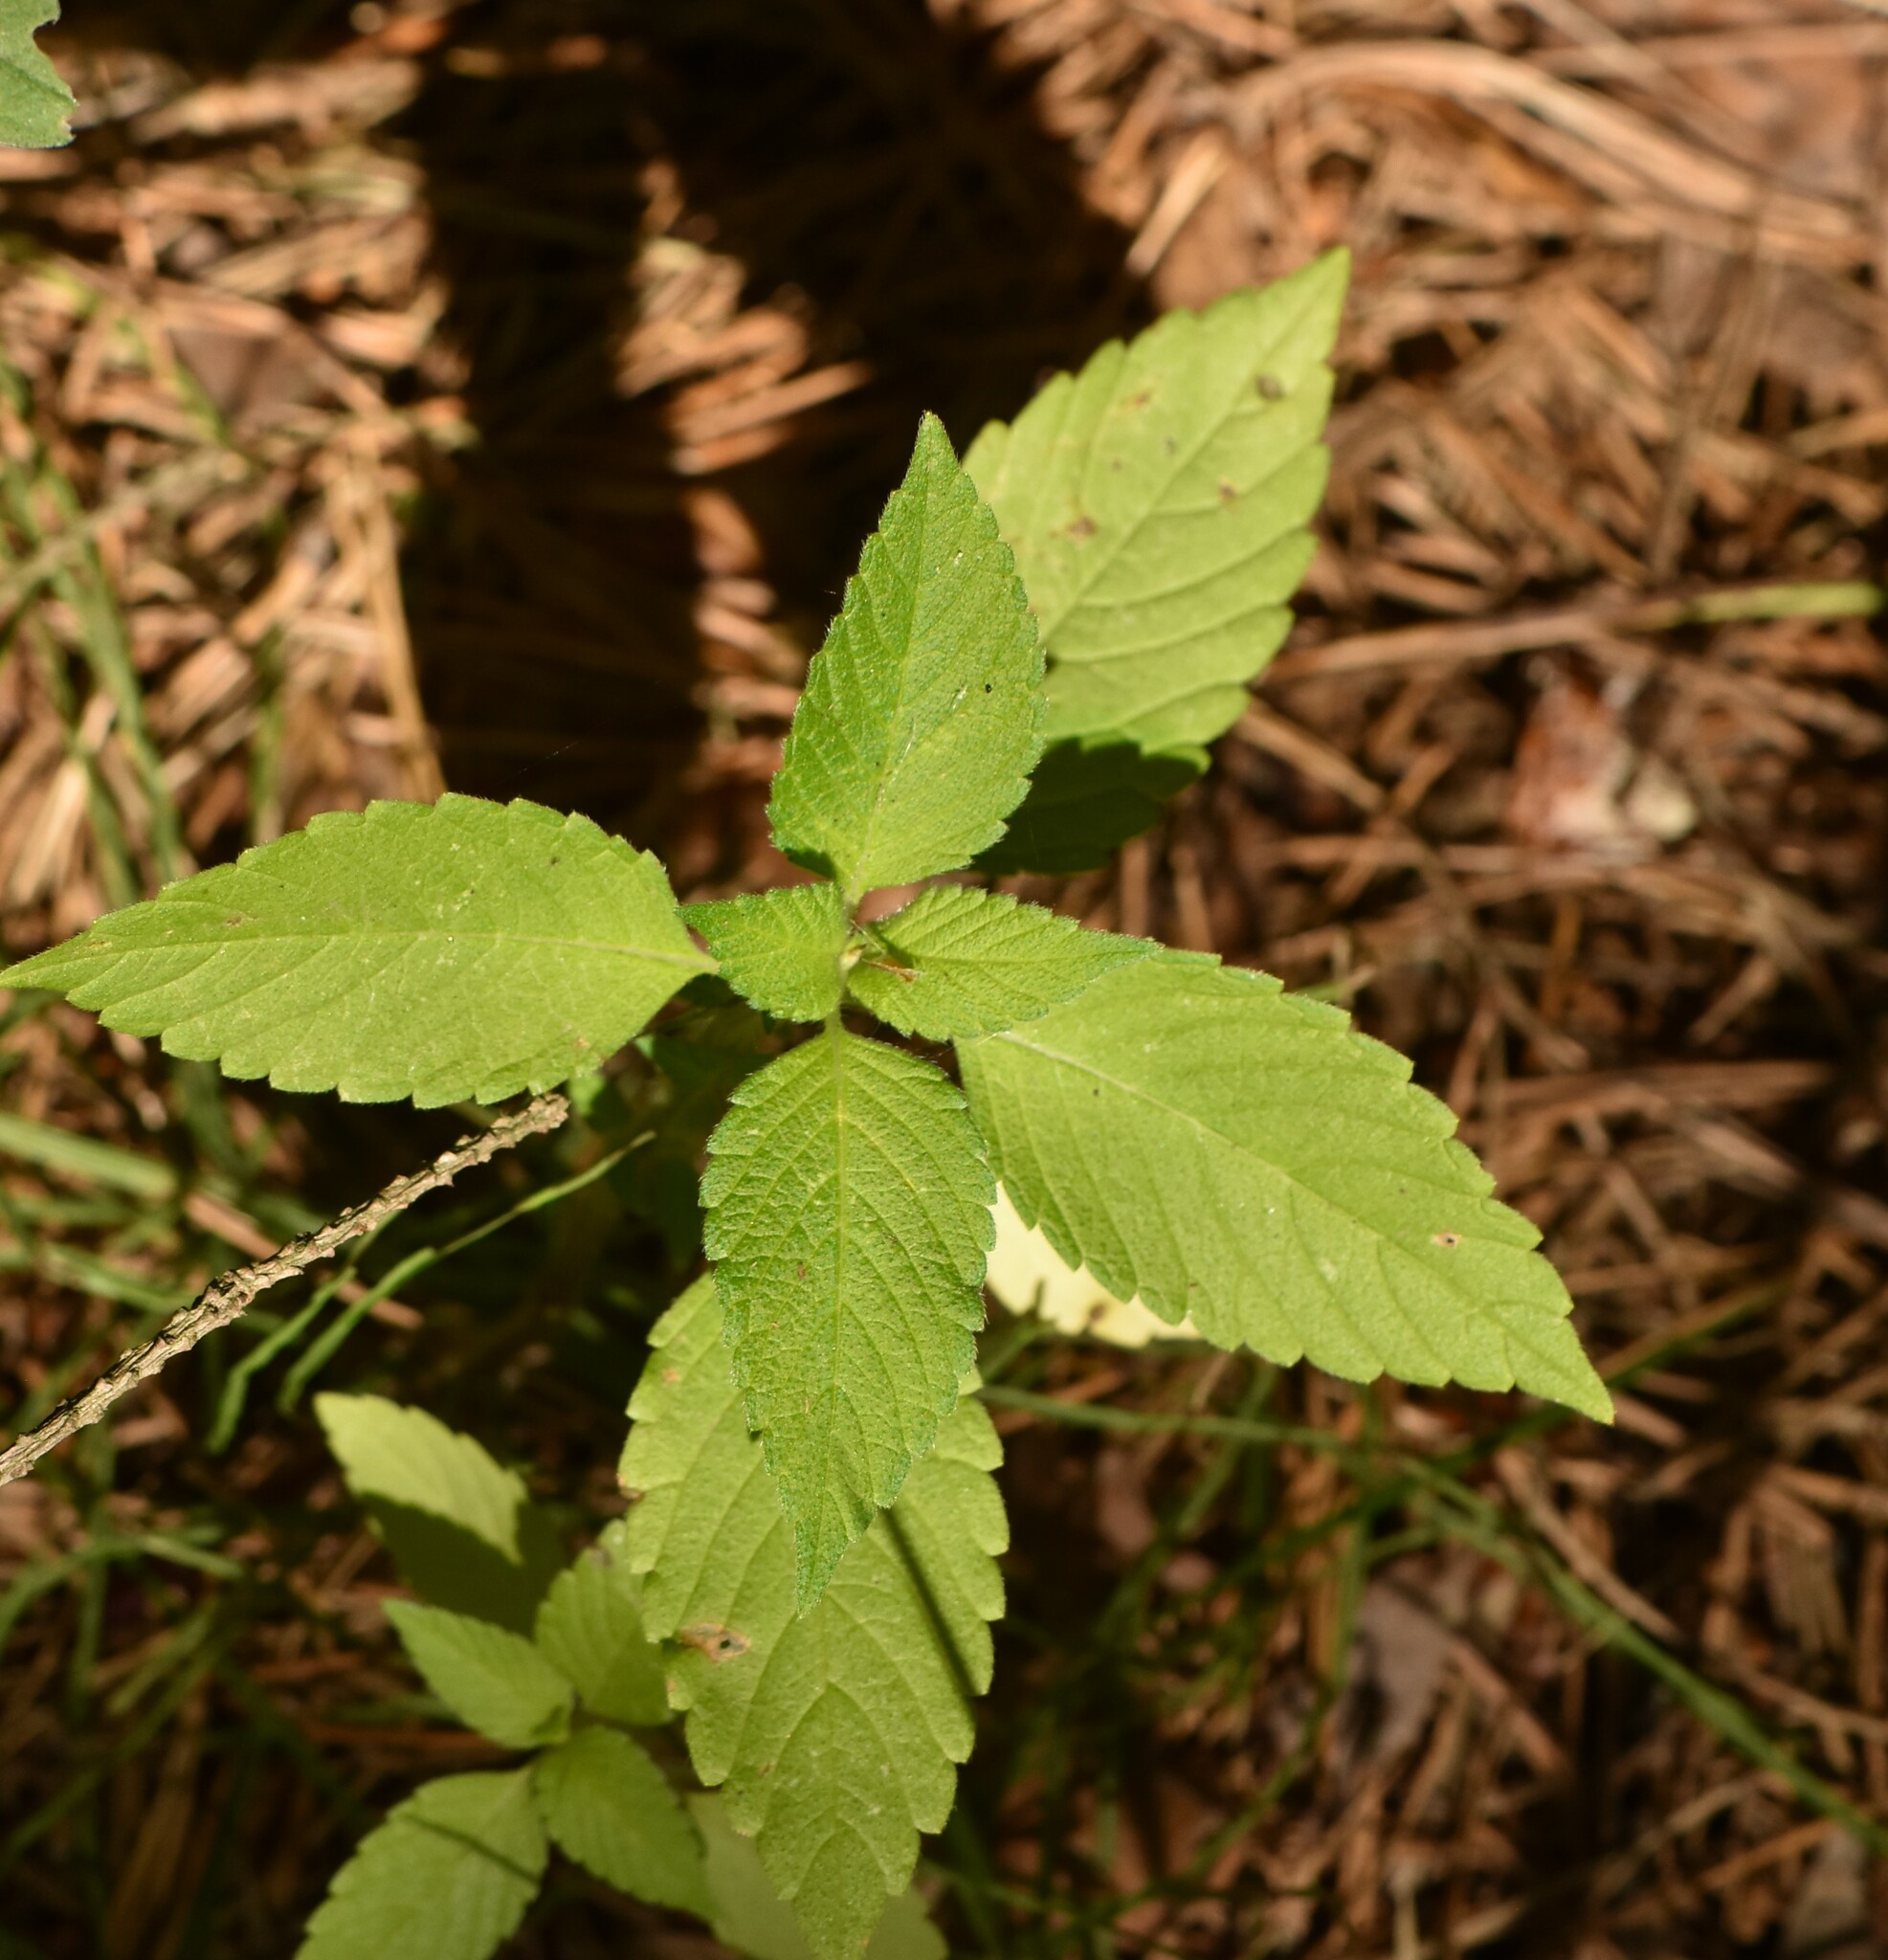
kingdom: Plantae
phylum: Tracheophyta
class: Magnoliopsida
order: Lamiales
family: Lamiaceae
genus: Galeopsis
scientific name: Galeopsis
